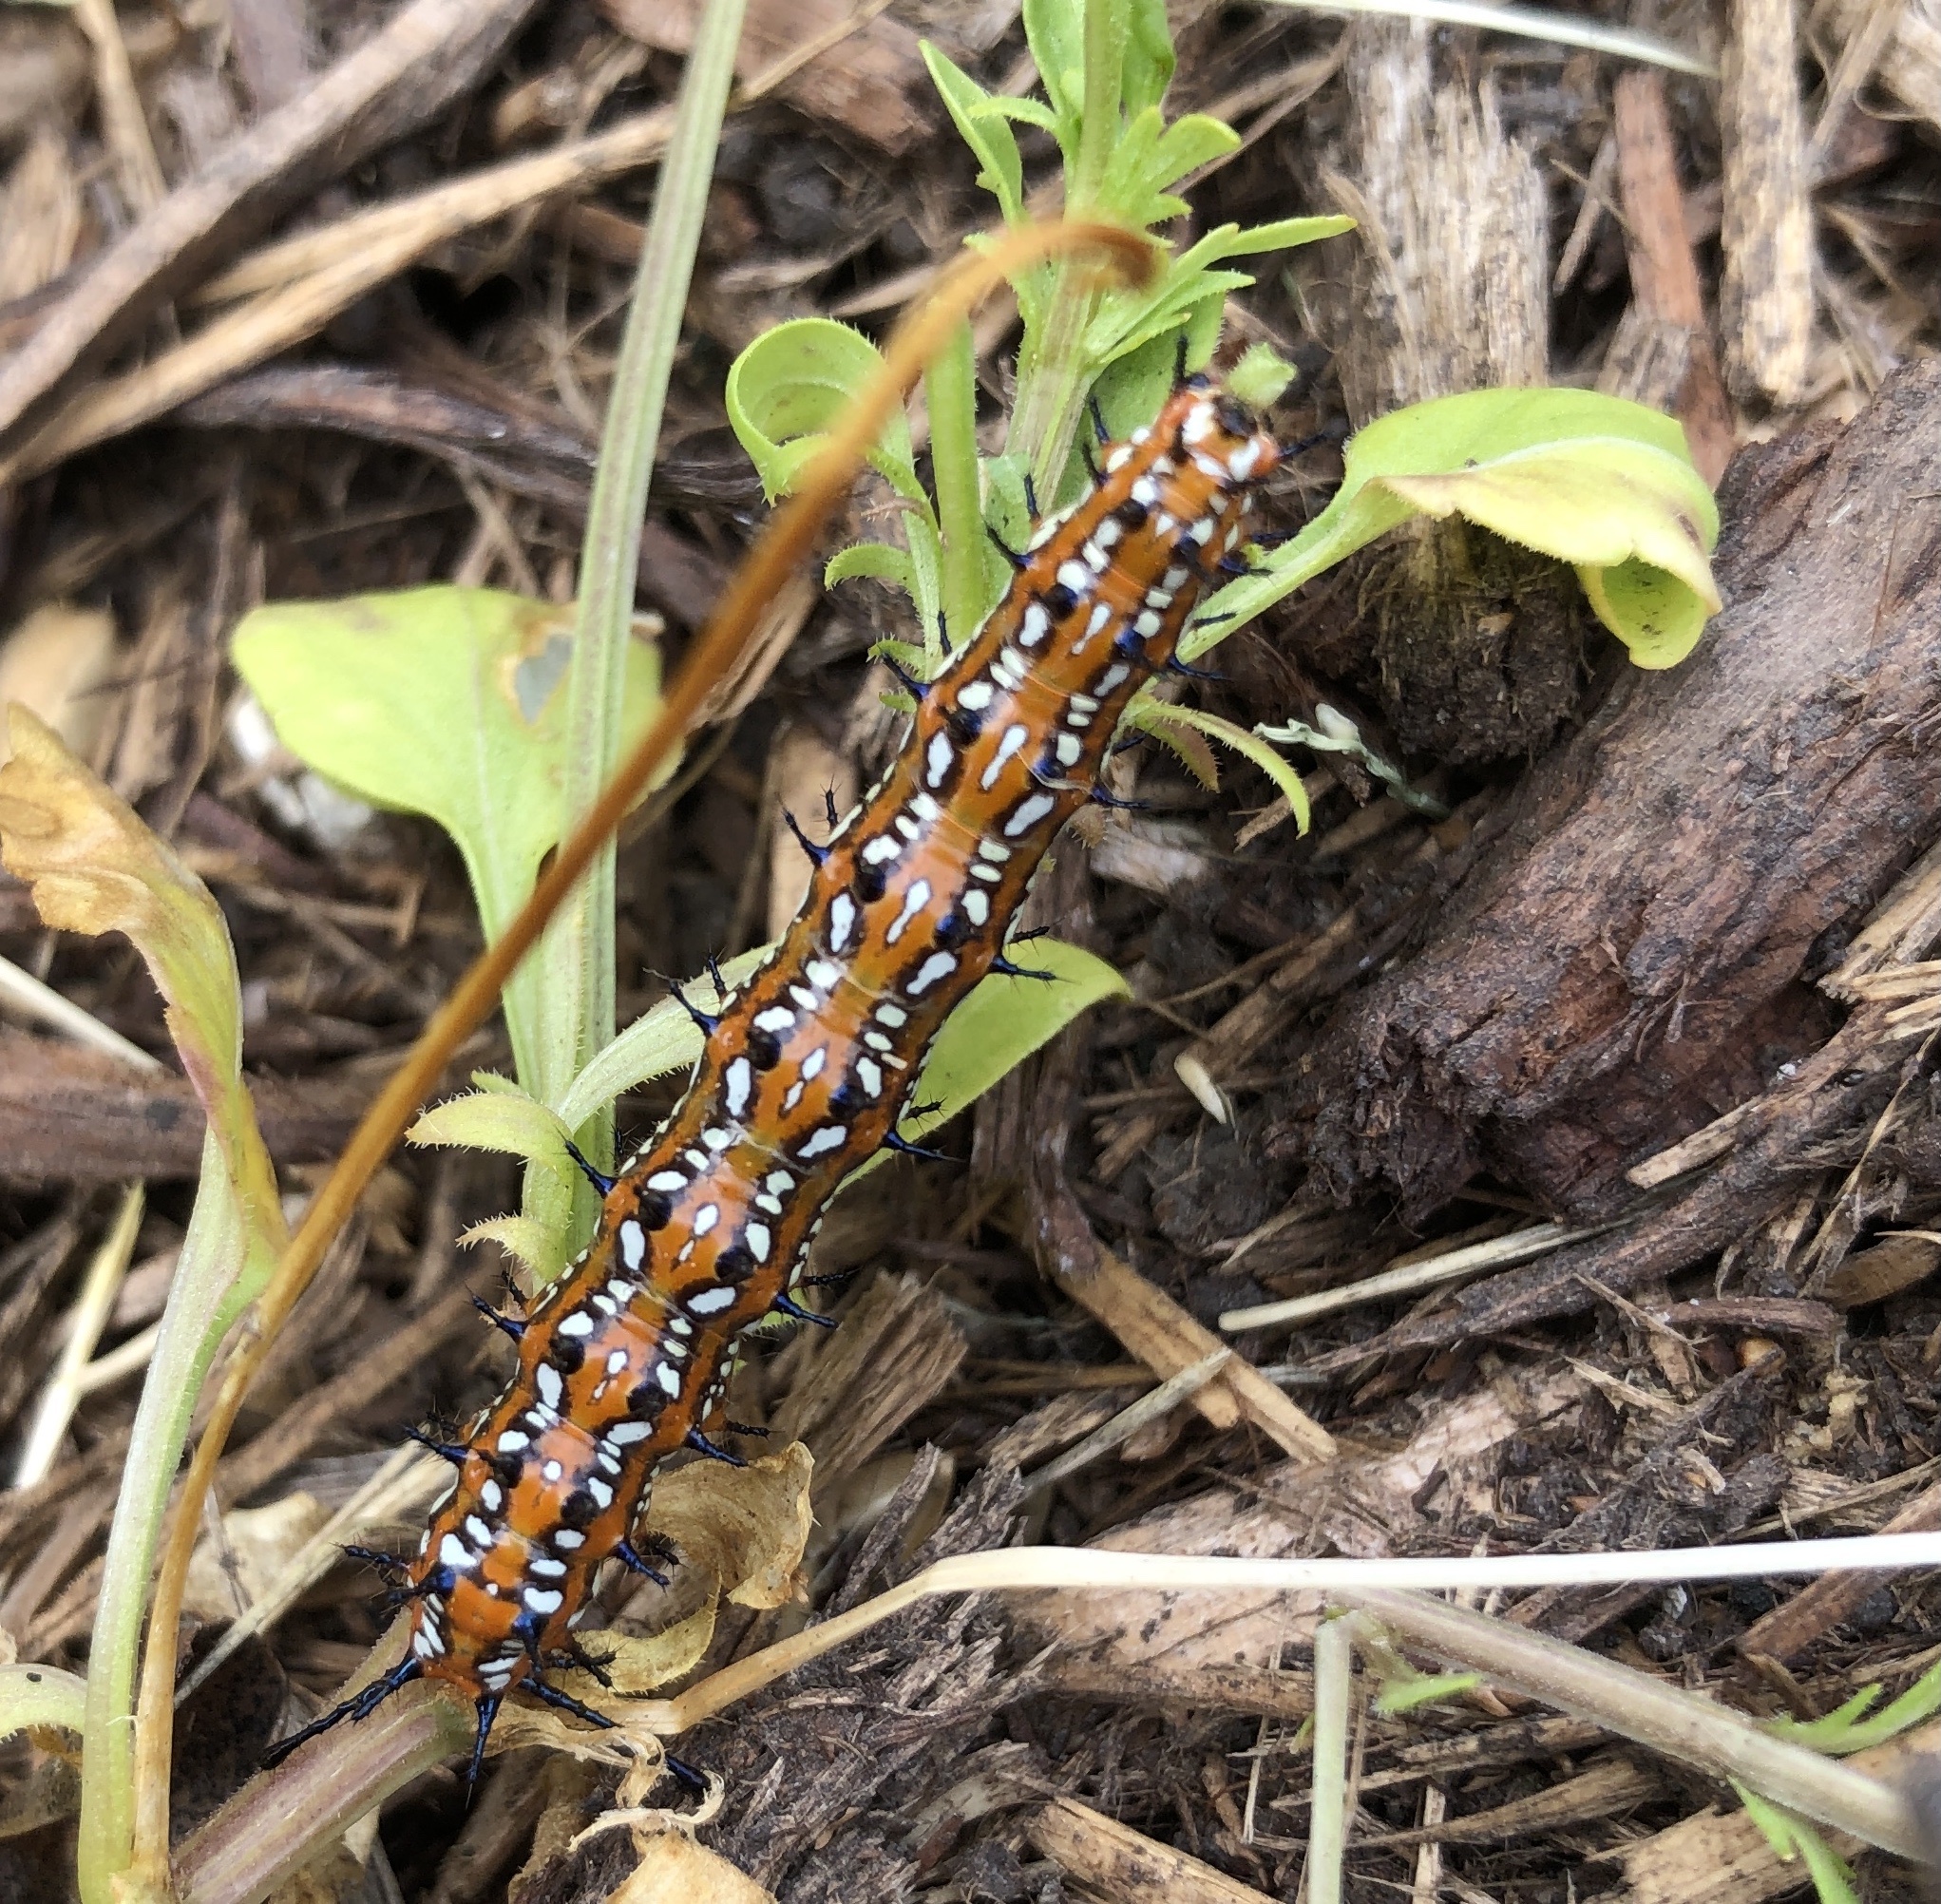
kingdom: Animalia
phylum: Arthropoda
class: Insecta
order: Lepidoptera
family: Nymphalidae
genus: Euptoieta
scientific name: Euptoieta claudia
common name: Variegated fritillary
